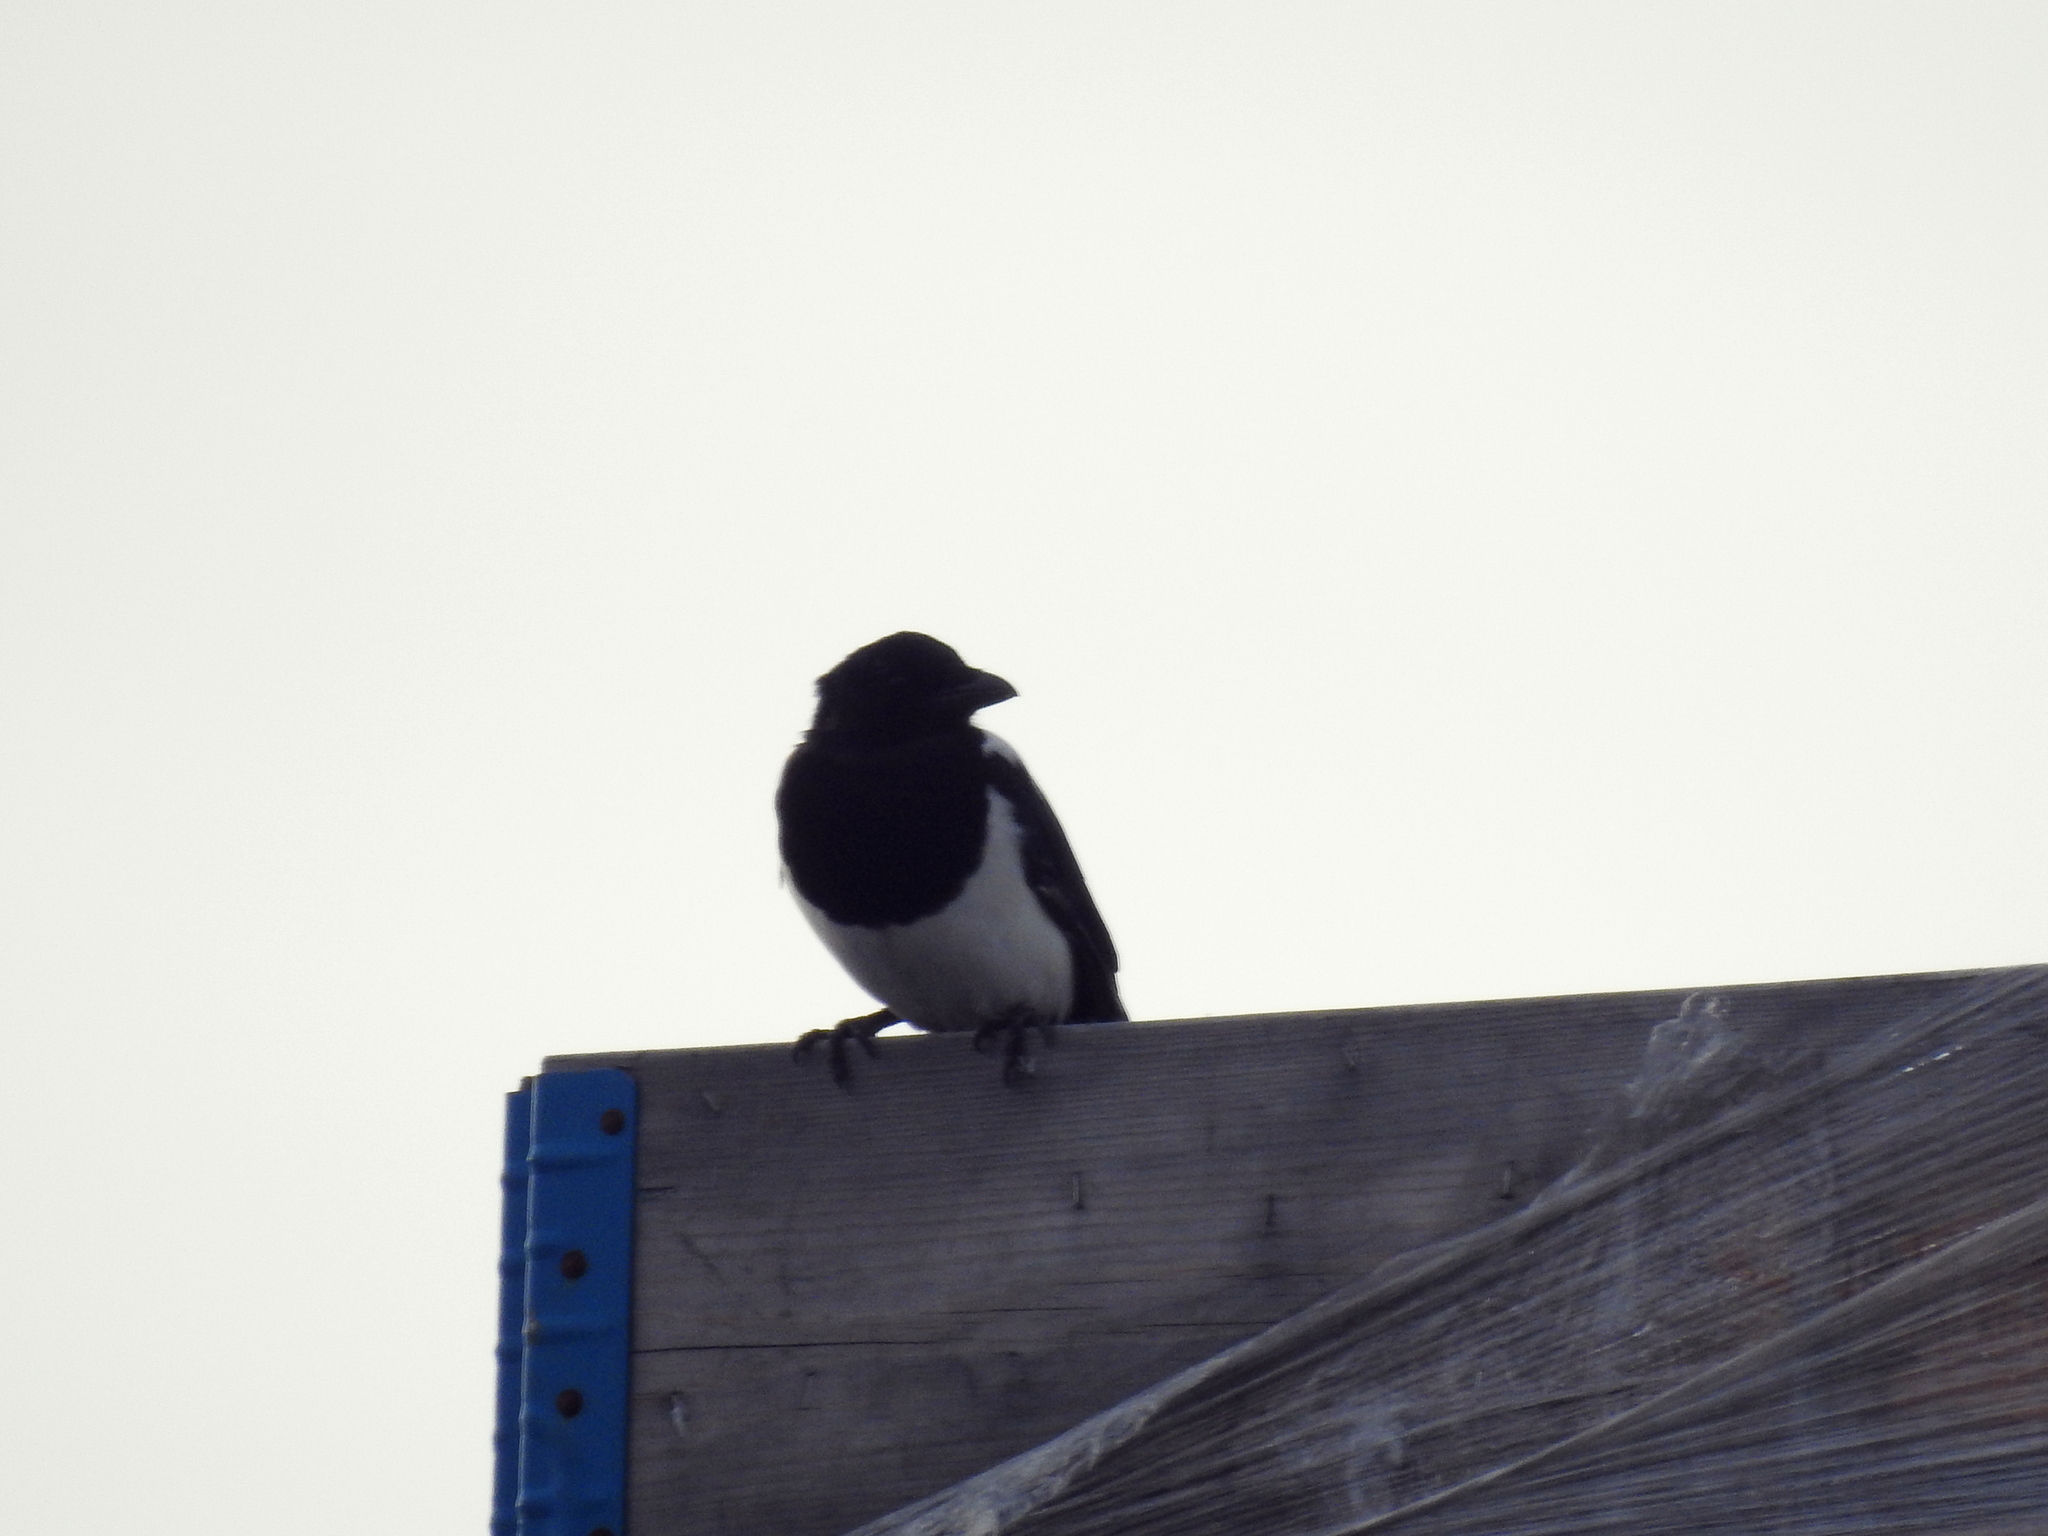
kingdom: Animalia
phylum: Chordata
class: Aves
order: Passeriformes
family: Corvidae
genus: Pica
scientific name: Pica pica
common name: Eurasian magpie
